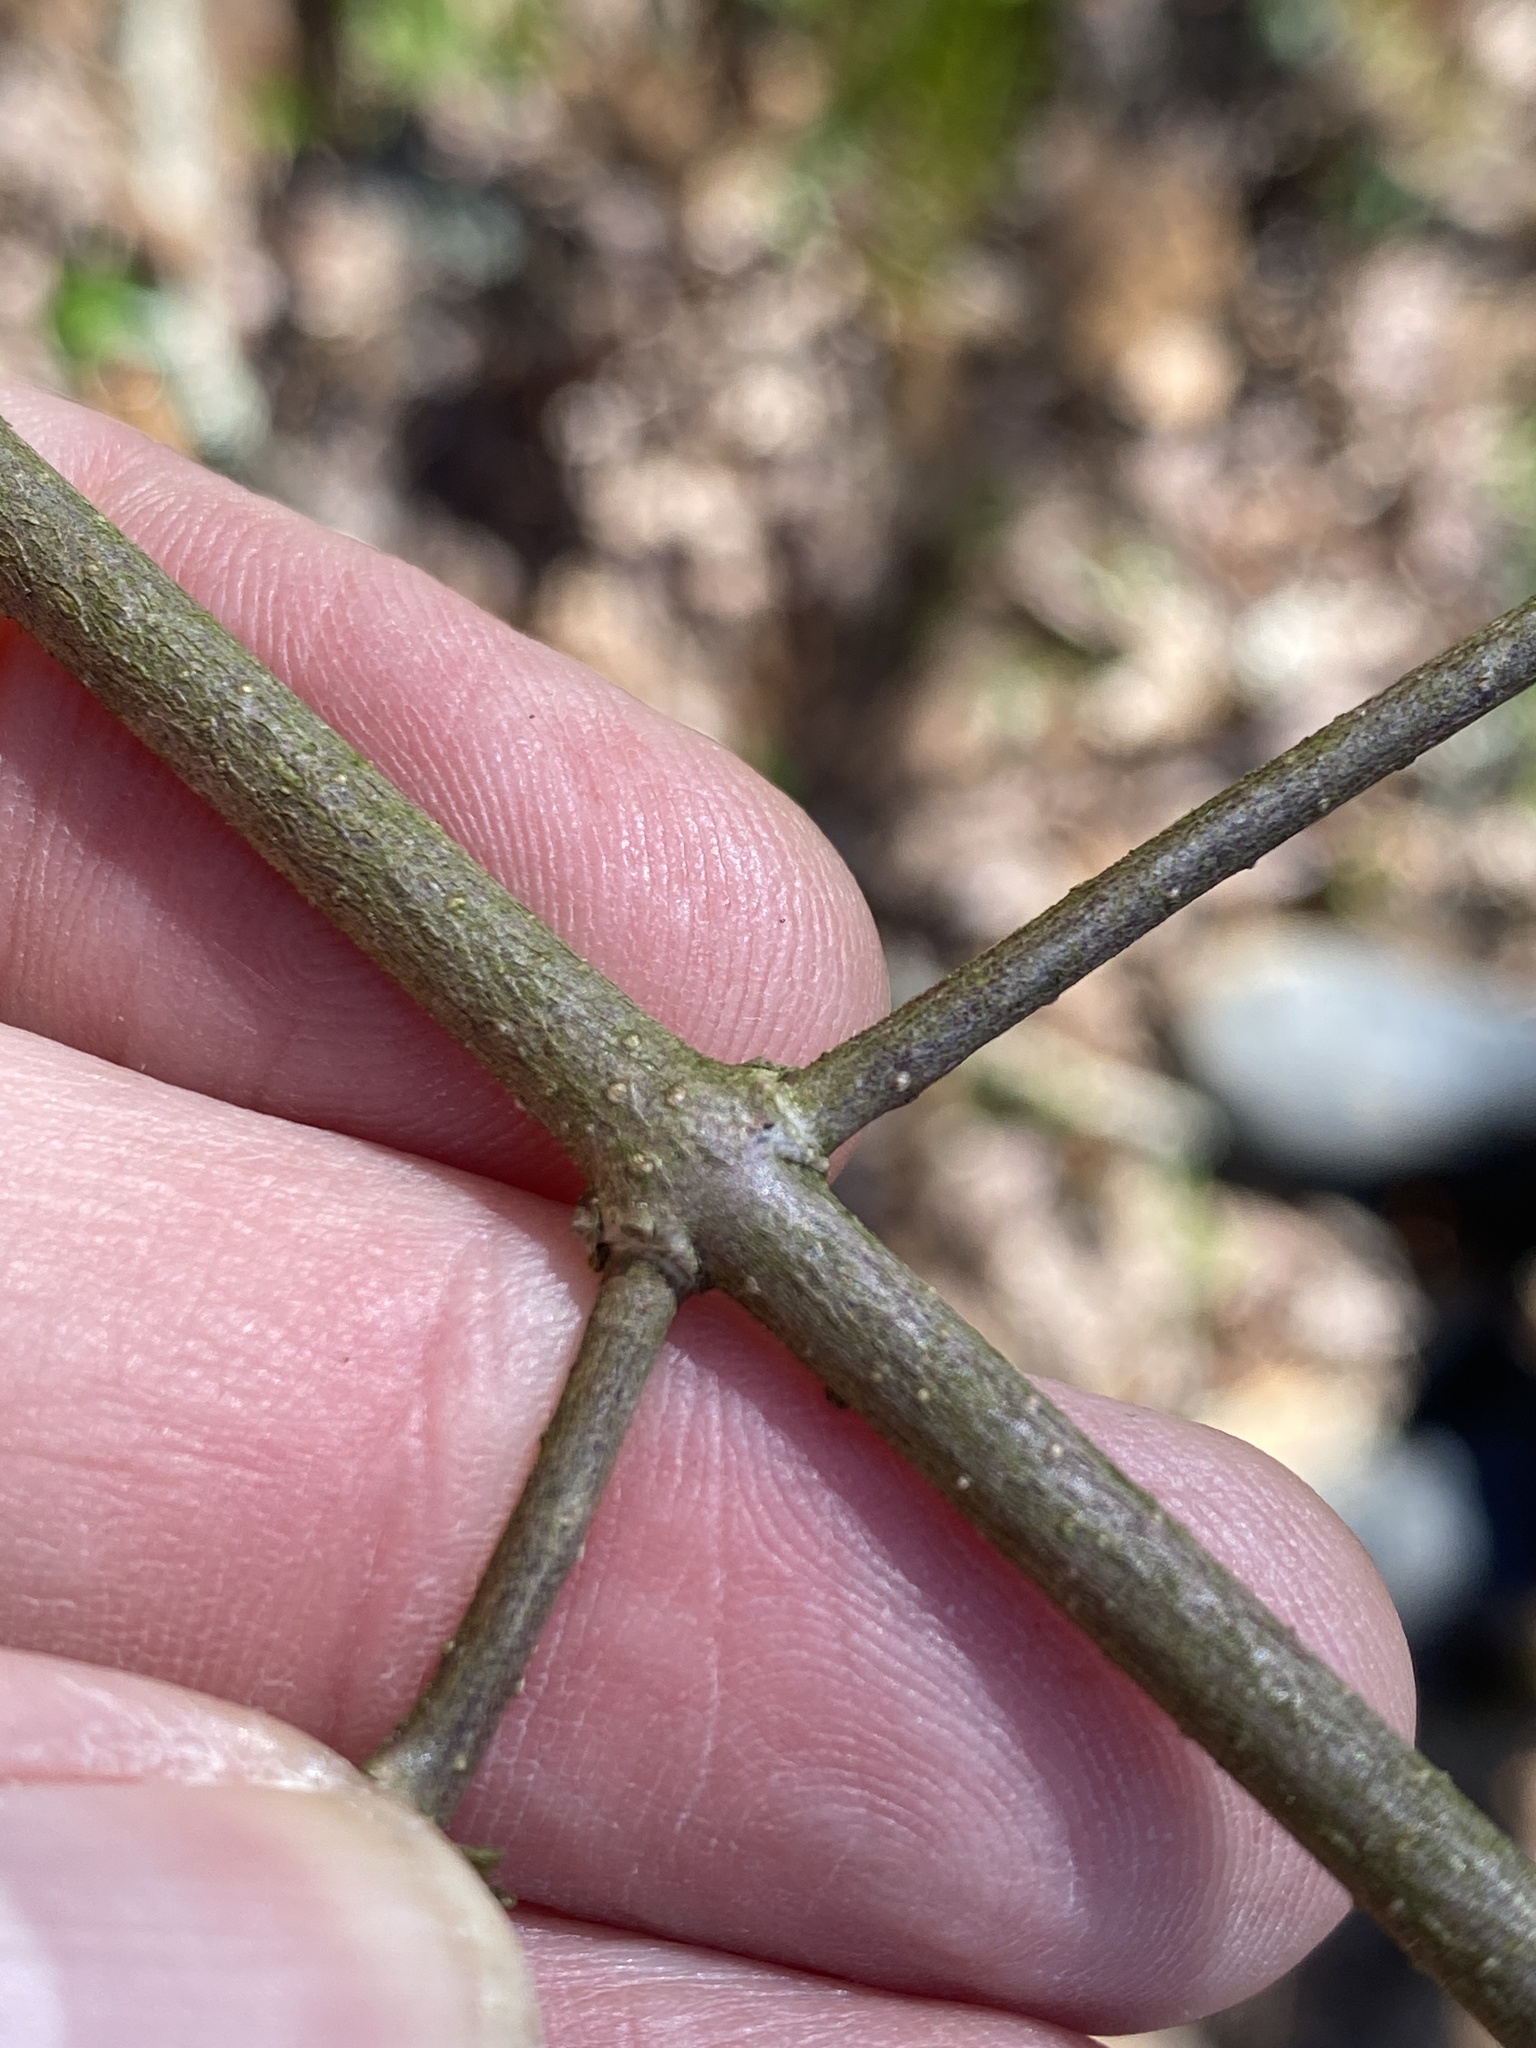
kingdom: Plantae
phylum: Tracheophyta
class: Magnoliopsida
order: Laurales
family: Calycanthaceae
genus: Calycanthus
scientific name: Calycanthus floridus
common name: Carolina-allspice
